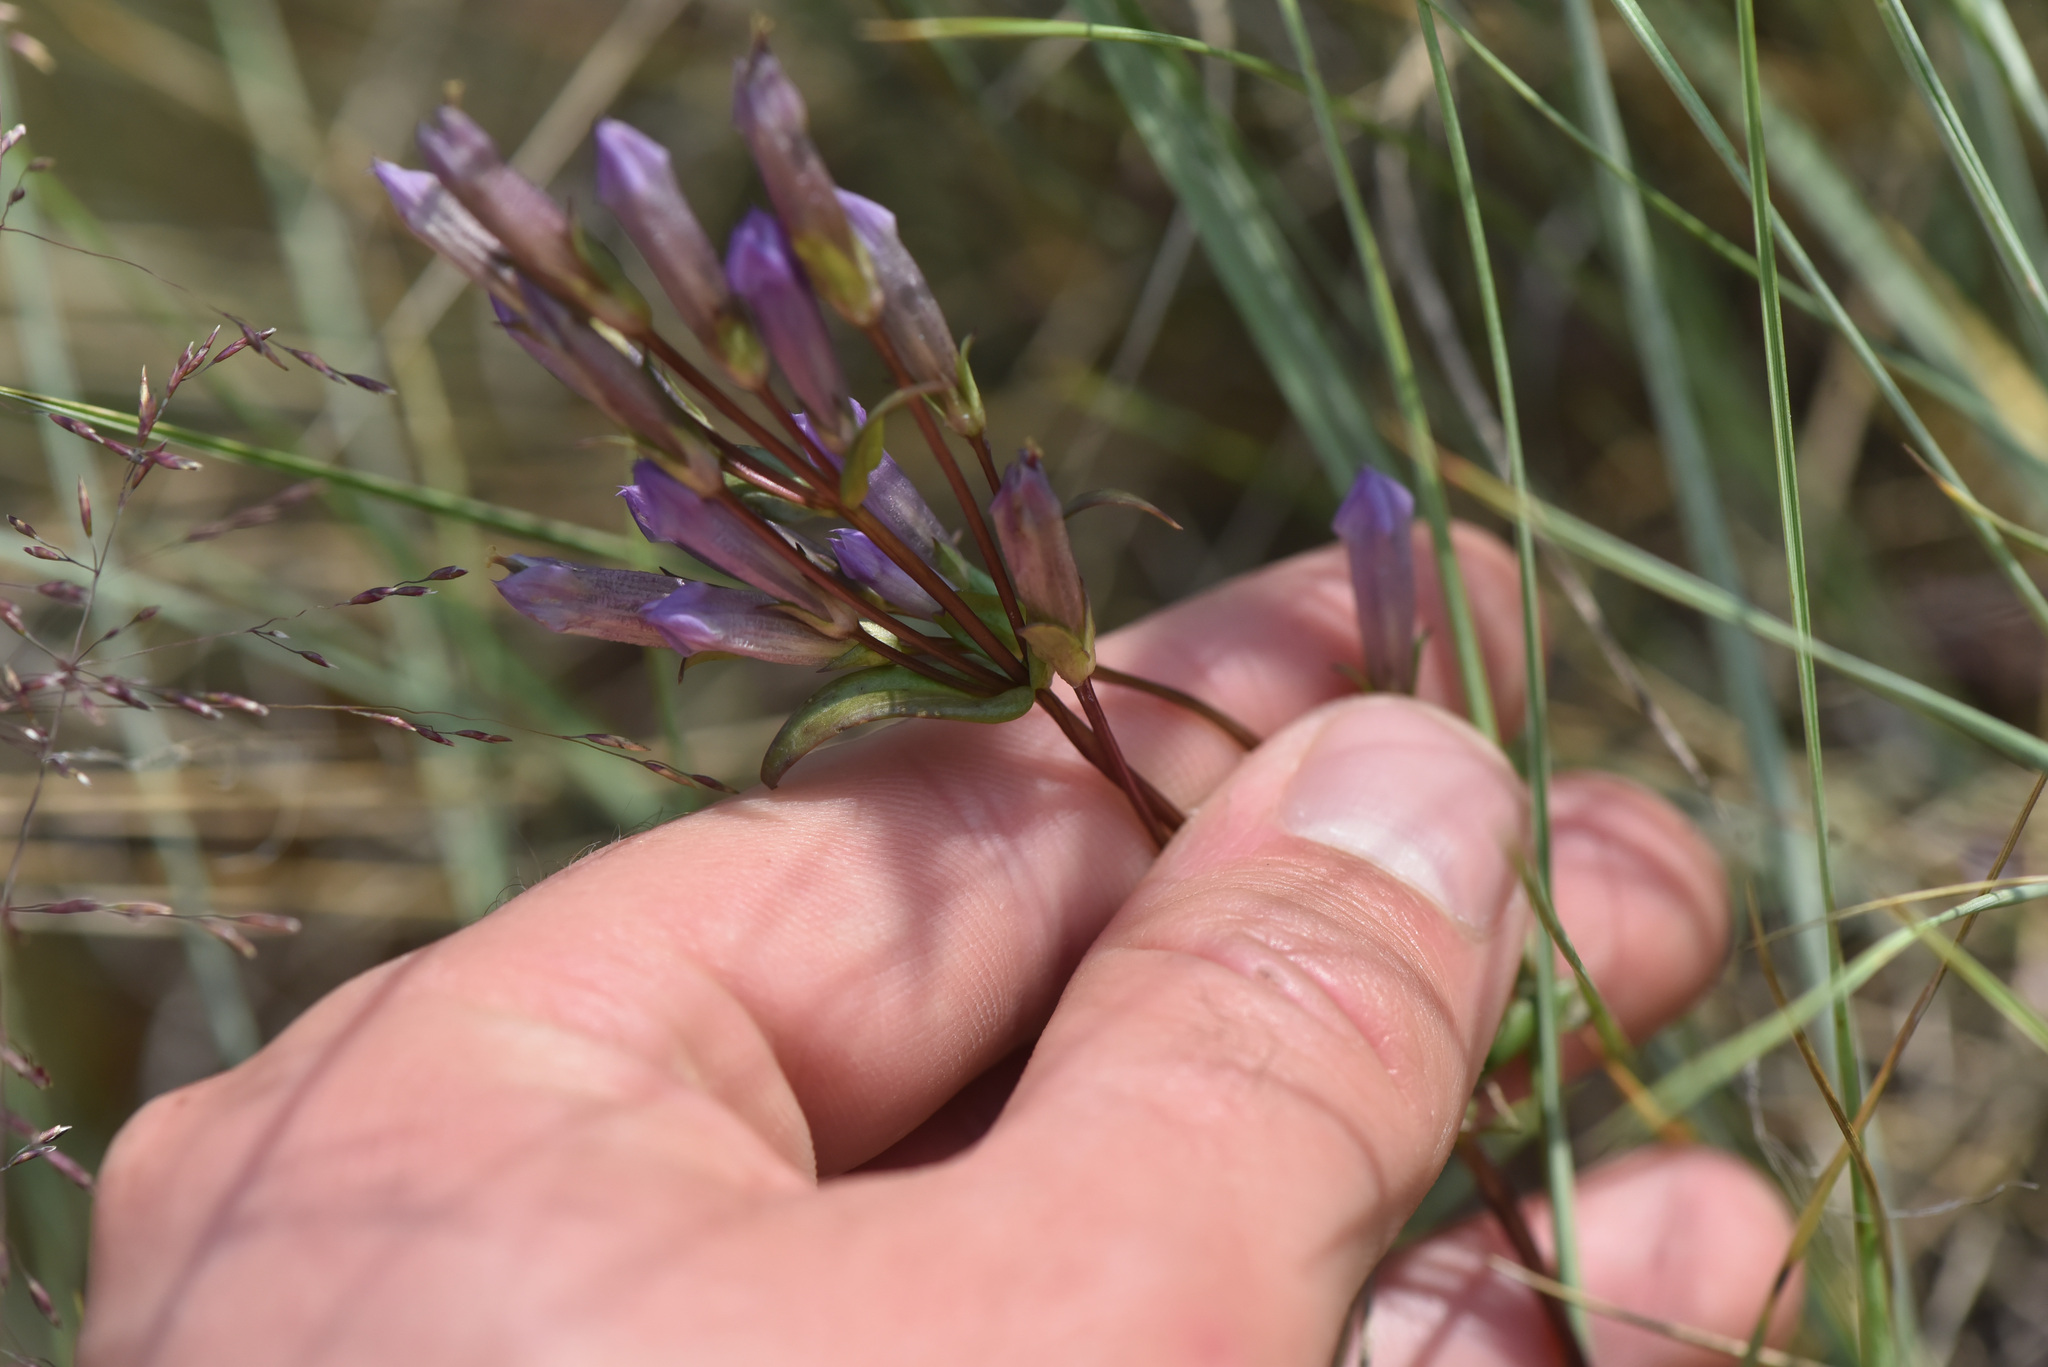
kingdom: Plantae
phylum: Tracheophyta
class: Magnoliopsida
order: Gentianales
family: Gentianaceae
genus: Gentianella
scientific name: Gentianella propinqua
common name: Four-parted dwarf-gentian
